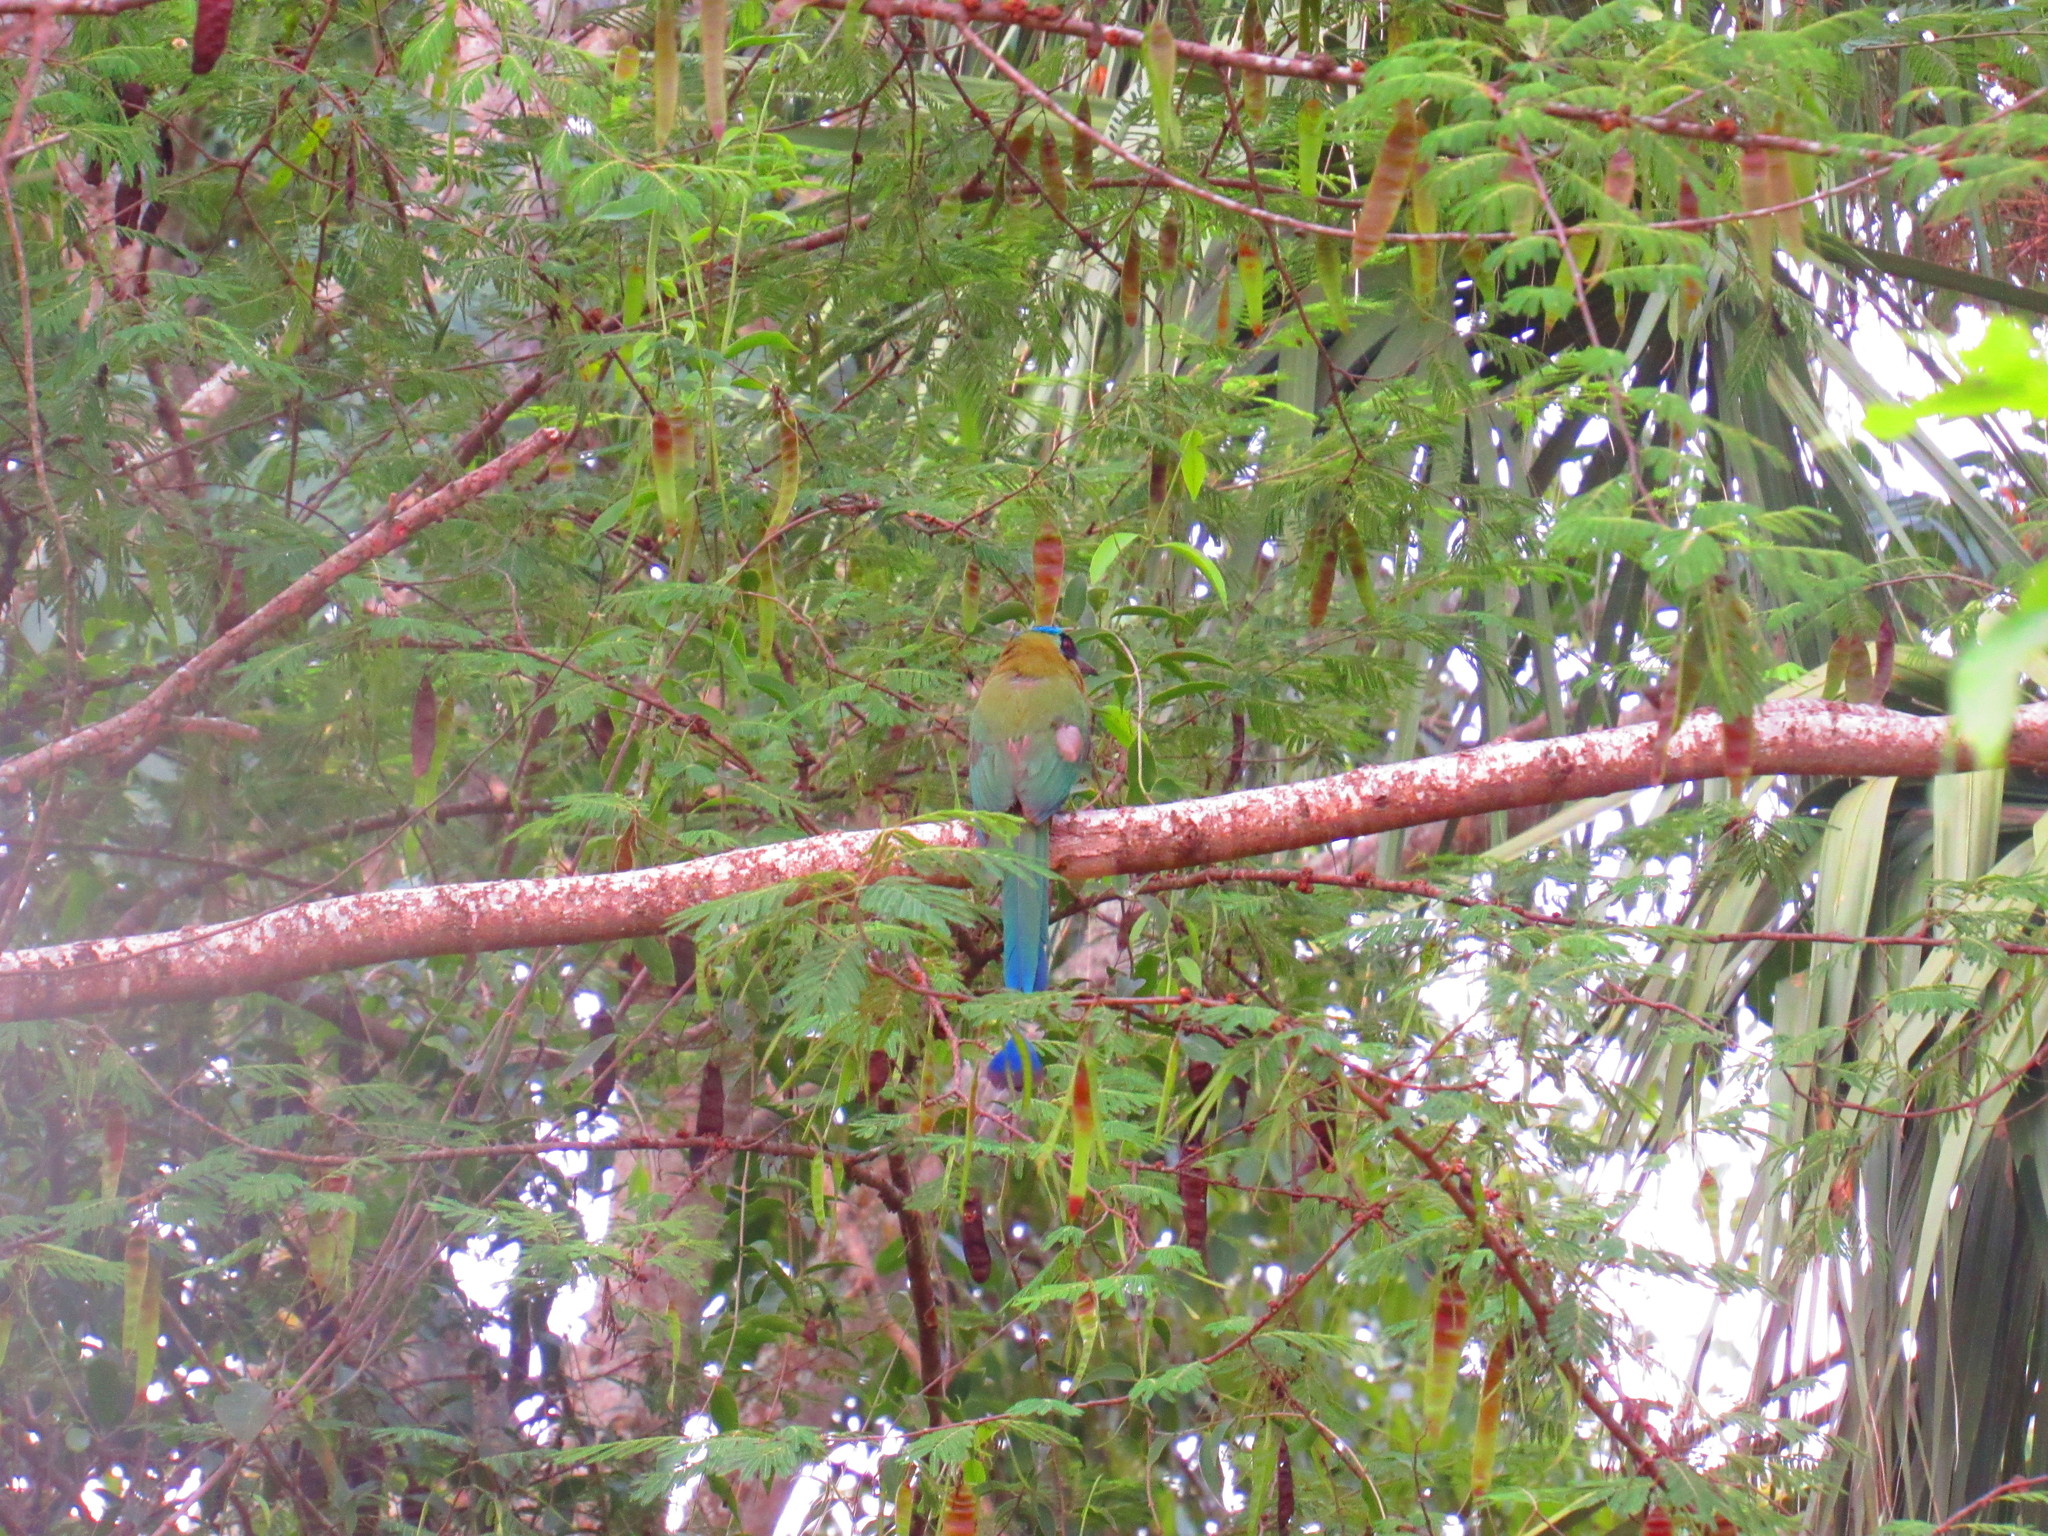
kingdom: Animalia
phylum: Chordata
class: Aves
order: Coraciiformes
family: Momotidae
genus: Momotus
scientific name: Momotus coeruliceps
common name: Blue-capped motmot
